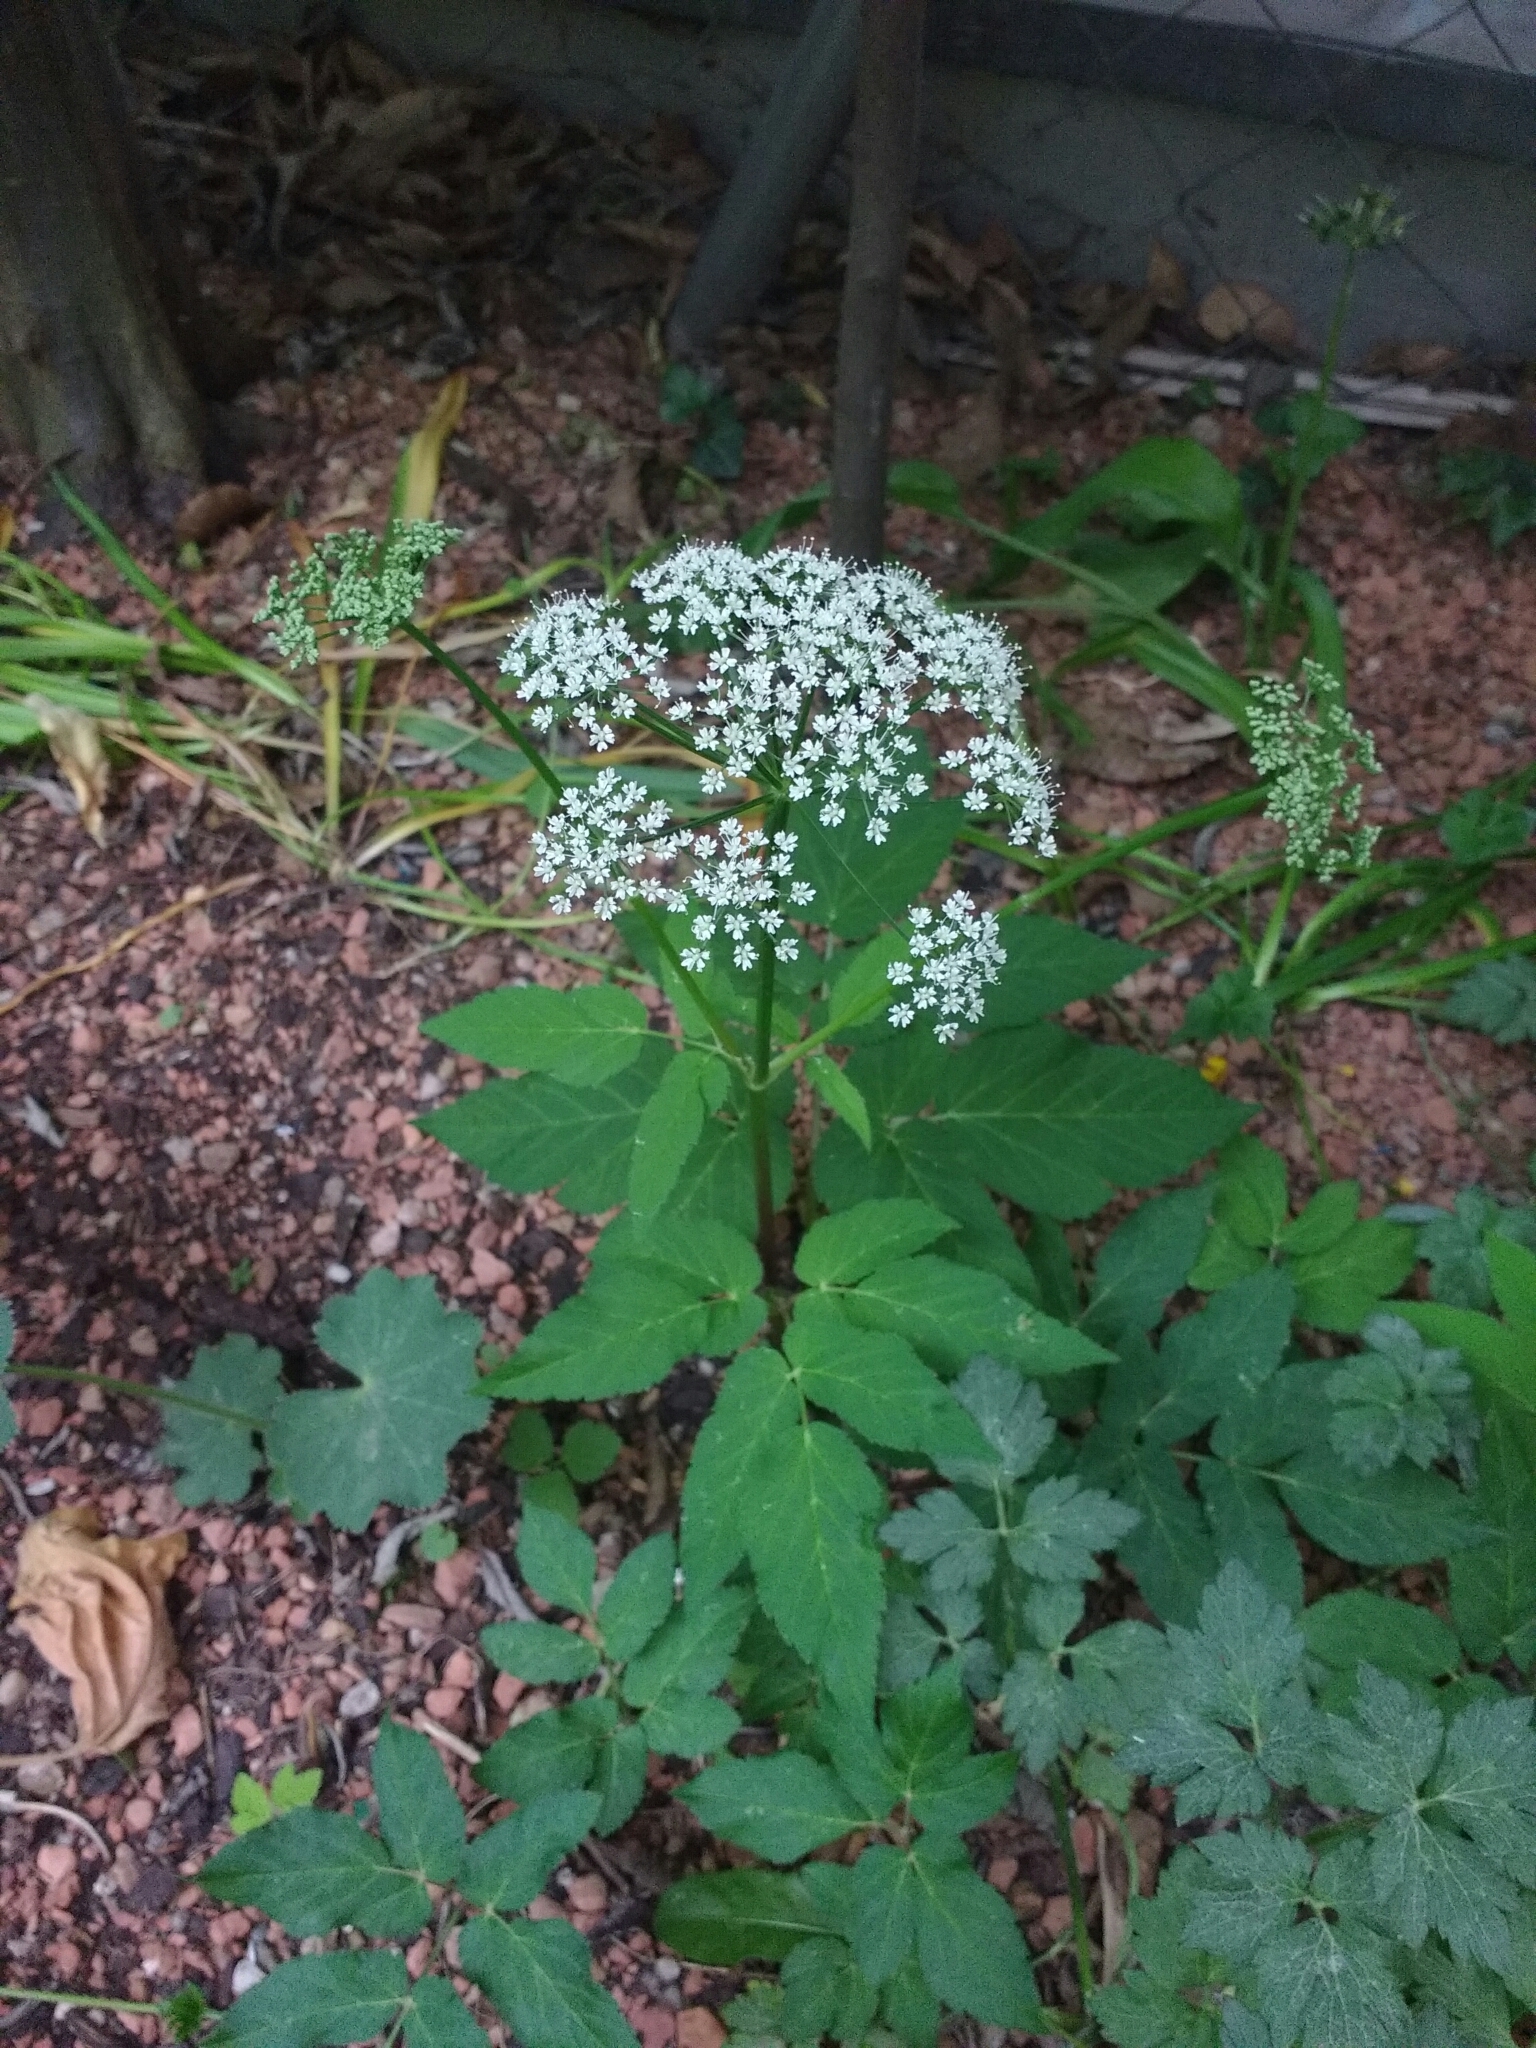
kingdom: Plantae
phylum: Tracheophyta
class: Magnoliopsida
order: Apiales
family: Apiaceae
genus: Aegopodium
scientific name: Aegopodium podagraria
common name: Ground-elder
